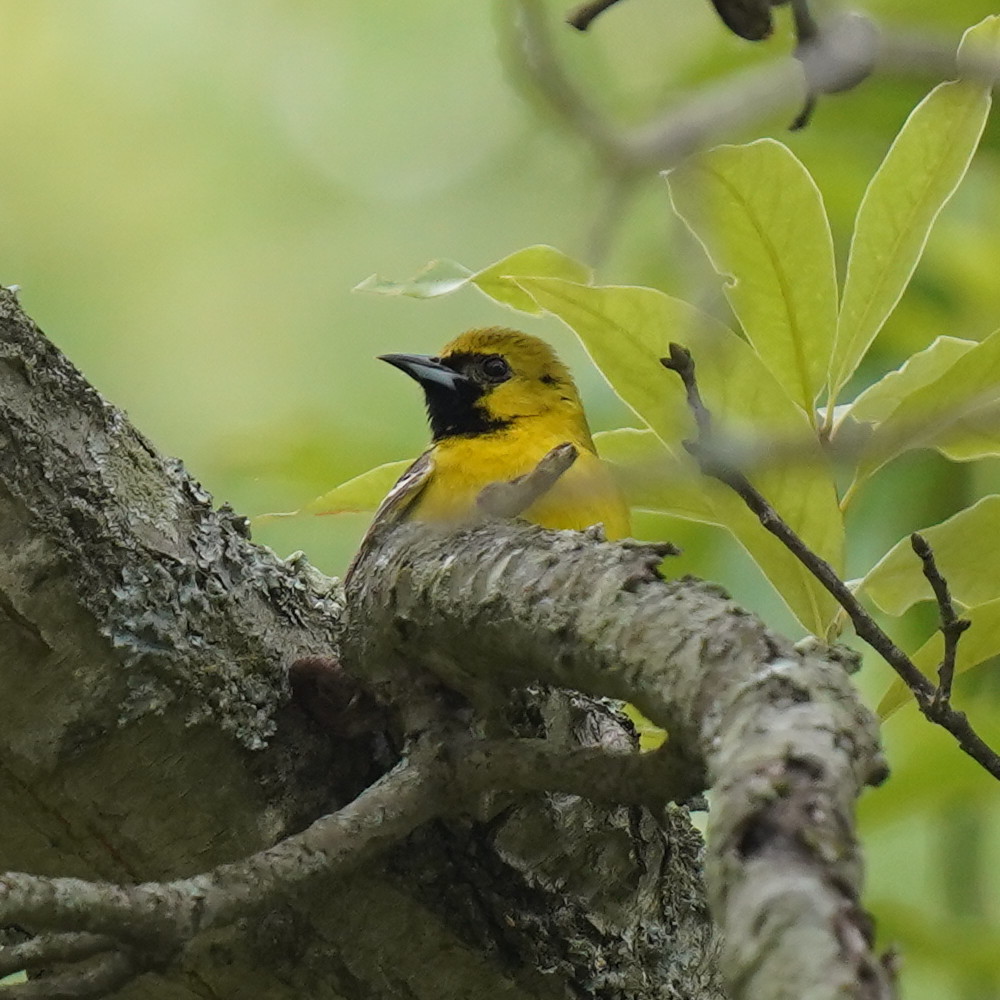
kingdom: Animalia
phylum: Chordata
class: Aves
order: Passeriformes
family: Icteridae
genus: Icterus
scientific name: Icterus spurius
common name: Orchard oriole
